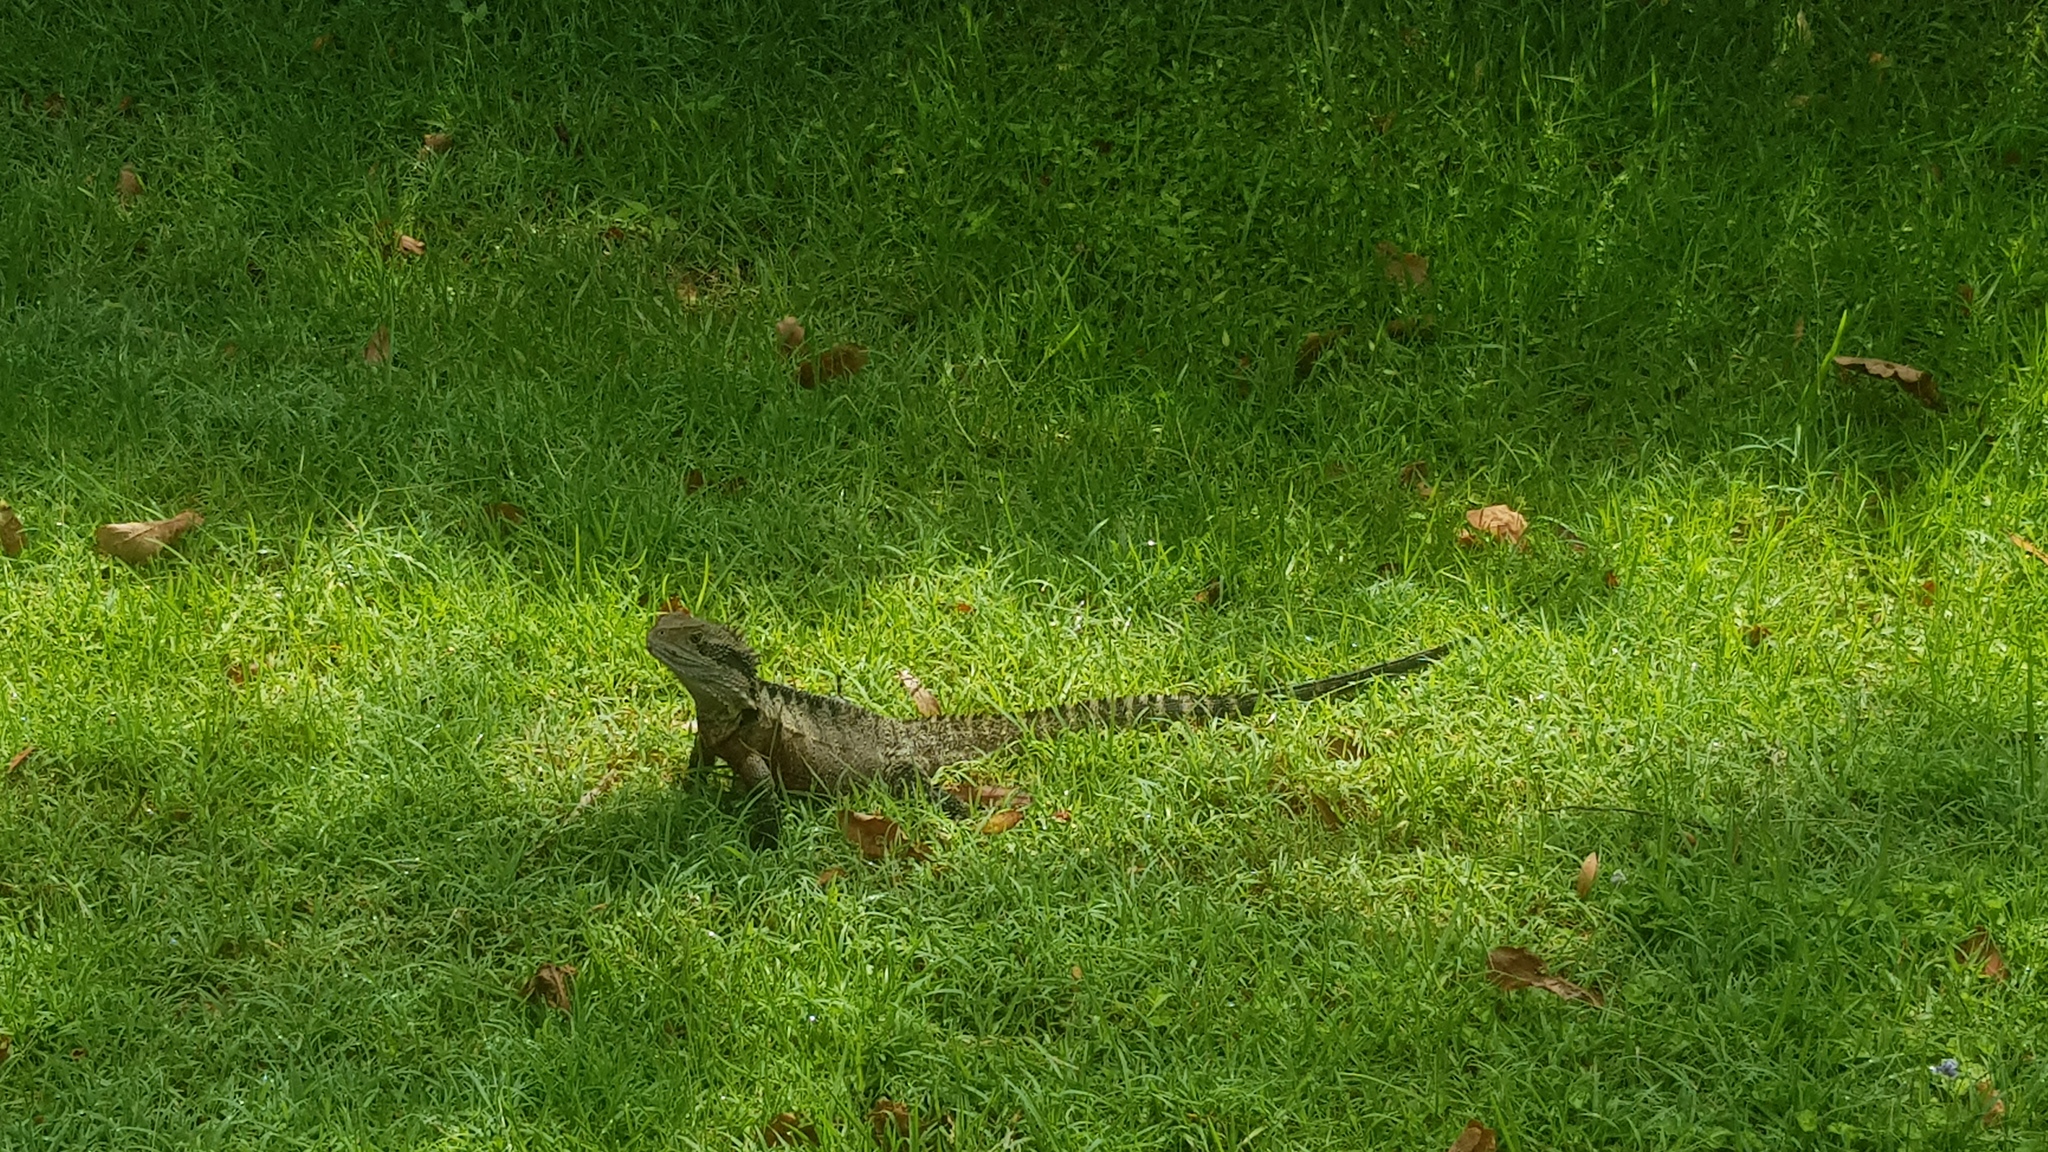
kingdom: Animalia
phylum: Chordata
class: Squamata
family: Agamidae
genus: Intellagama
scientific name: Intellagama lesueurii
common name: Eastern water dragon
